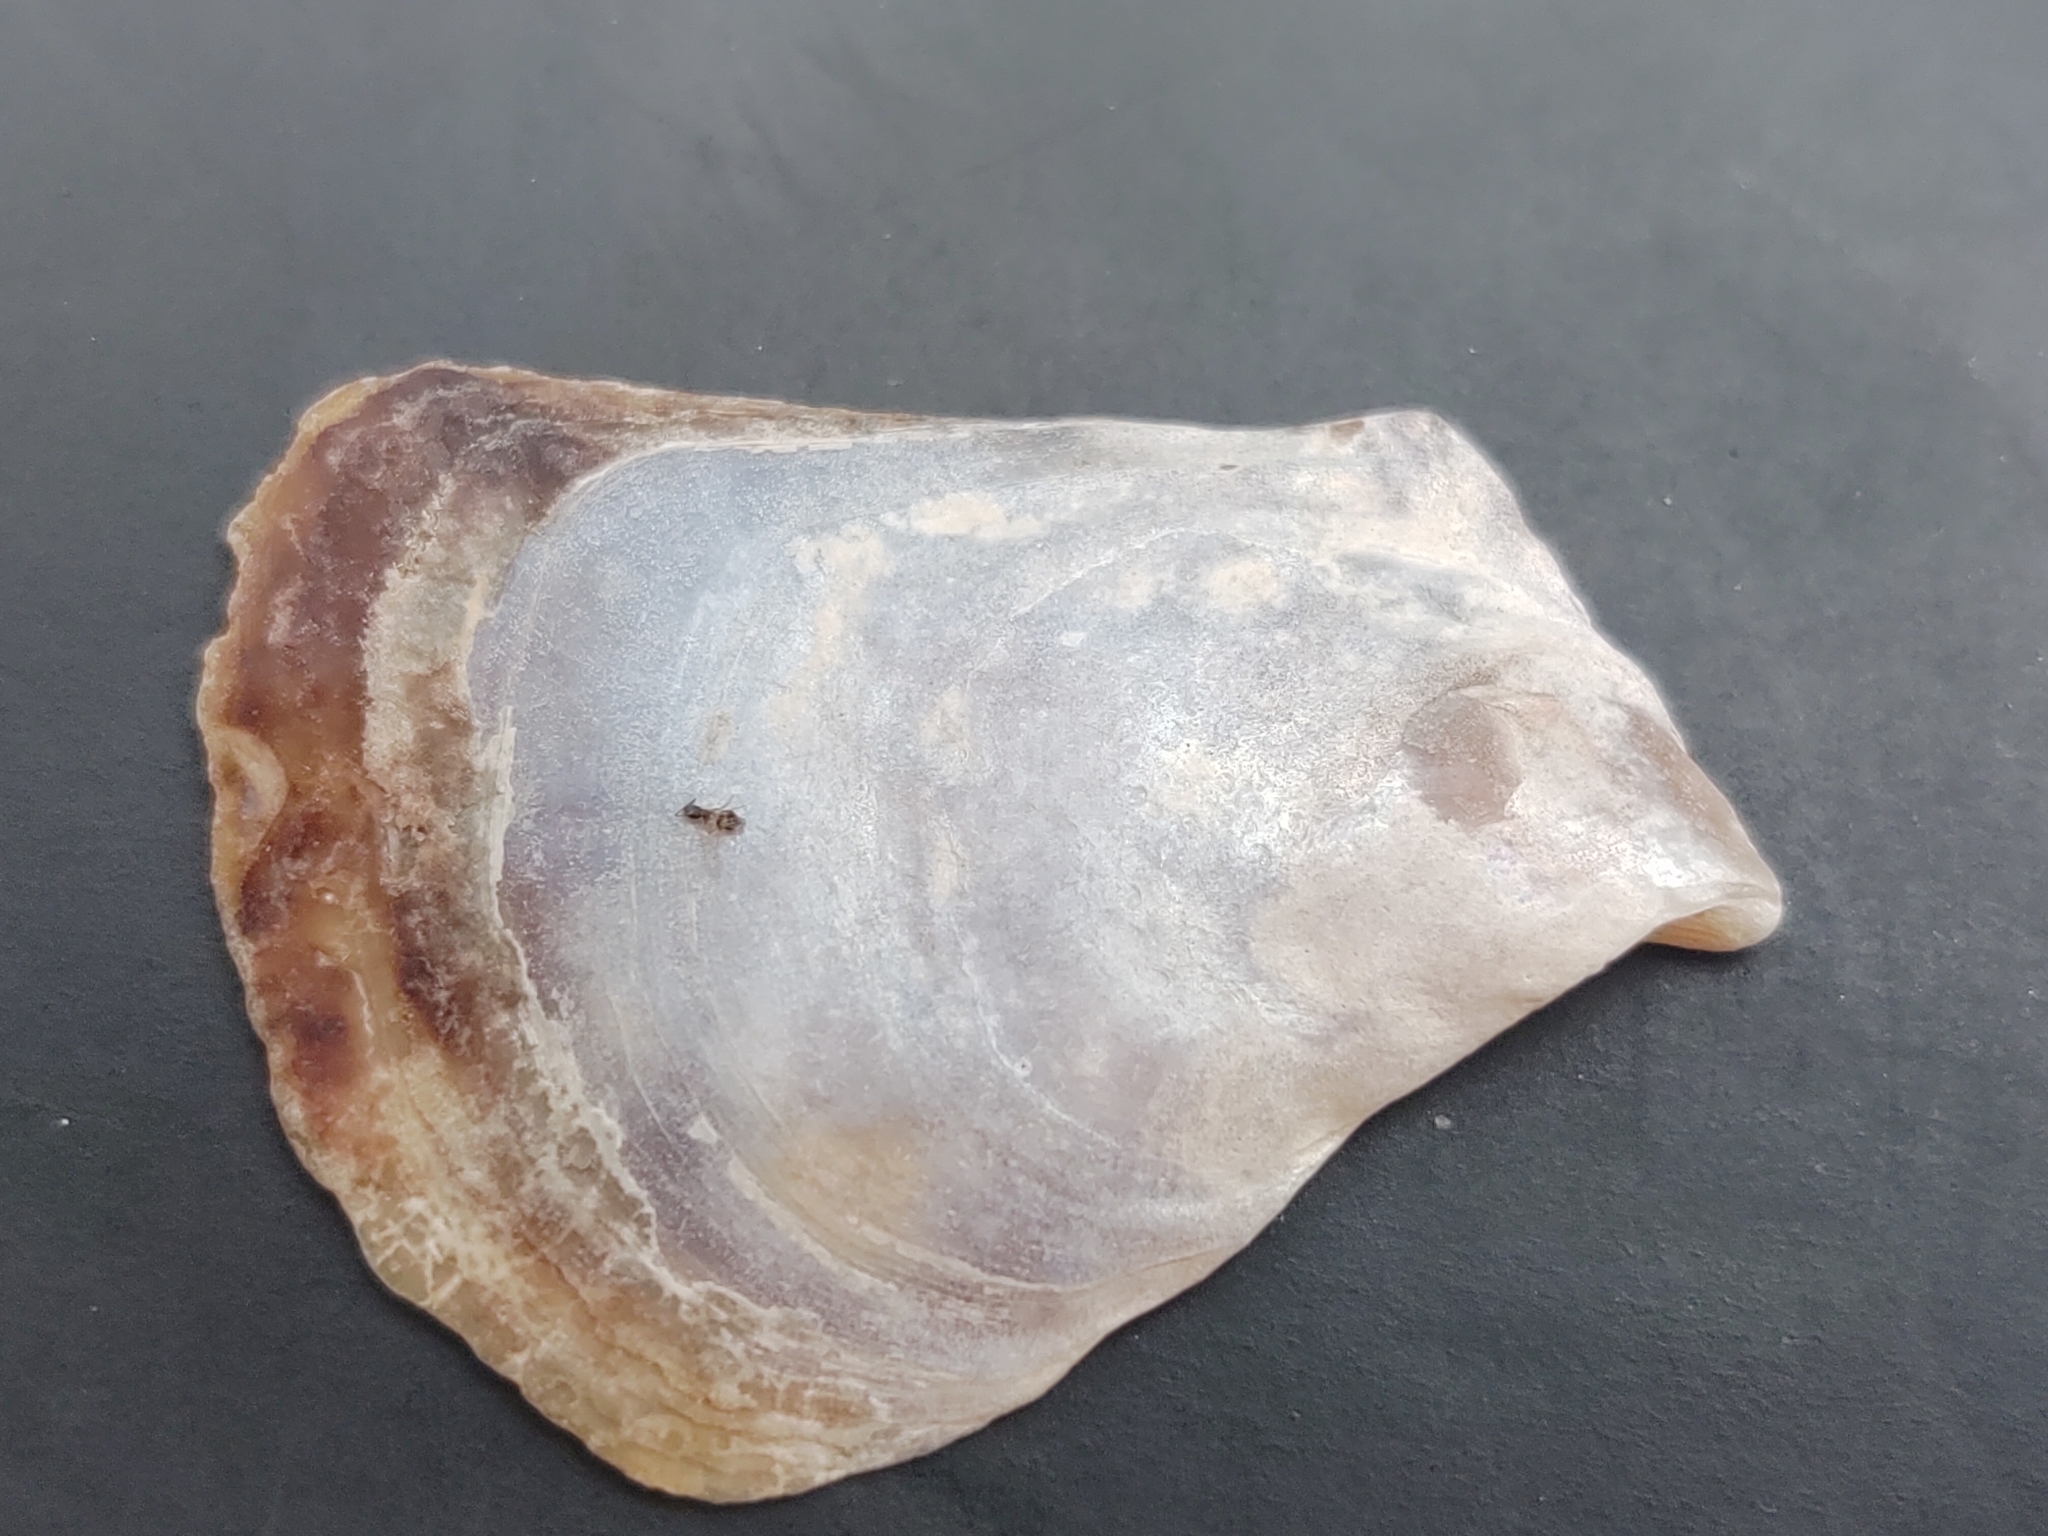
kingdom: Animalia
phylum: Mollusca
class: Bivalvia
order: Ostreida
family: Isognomonidae
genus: Isognomon
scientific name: Isognomon alatus
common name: Flat tree-oyster
